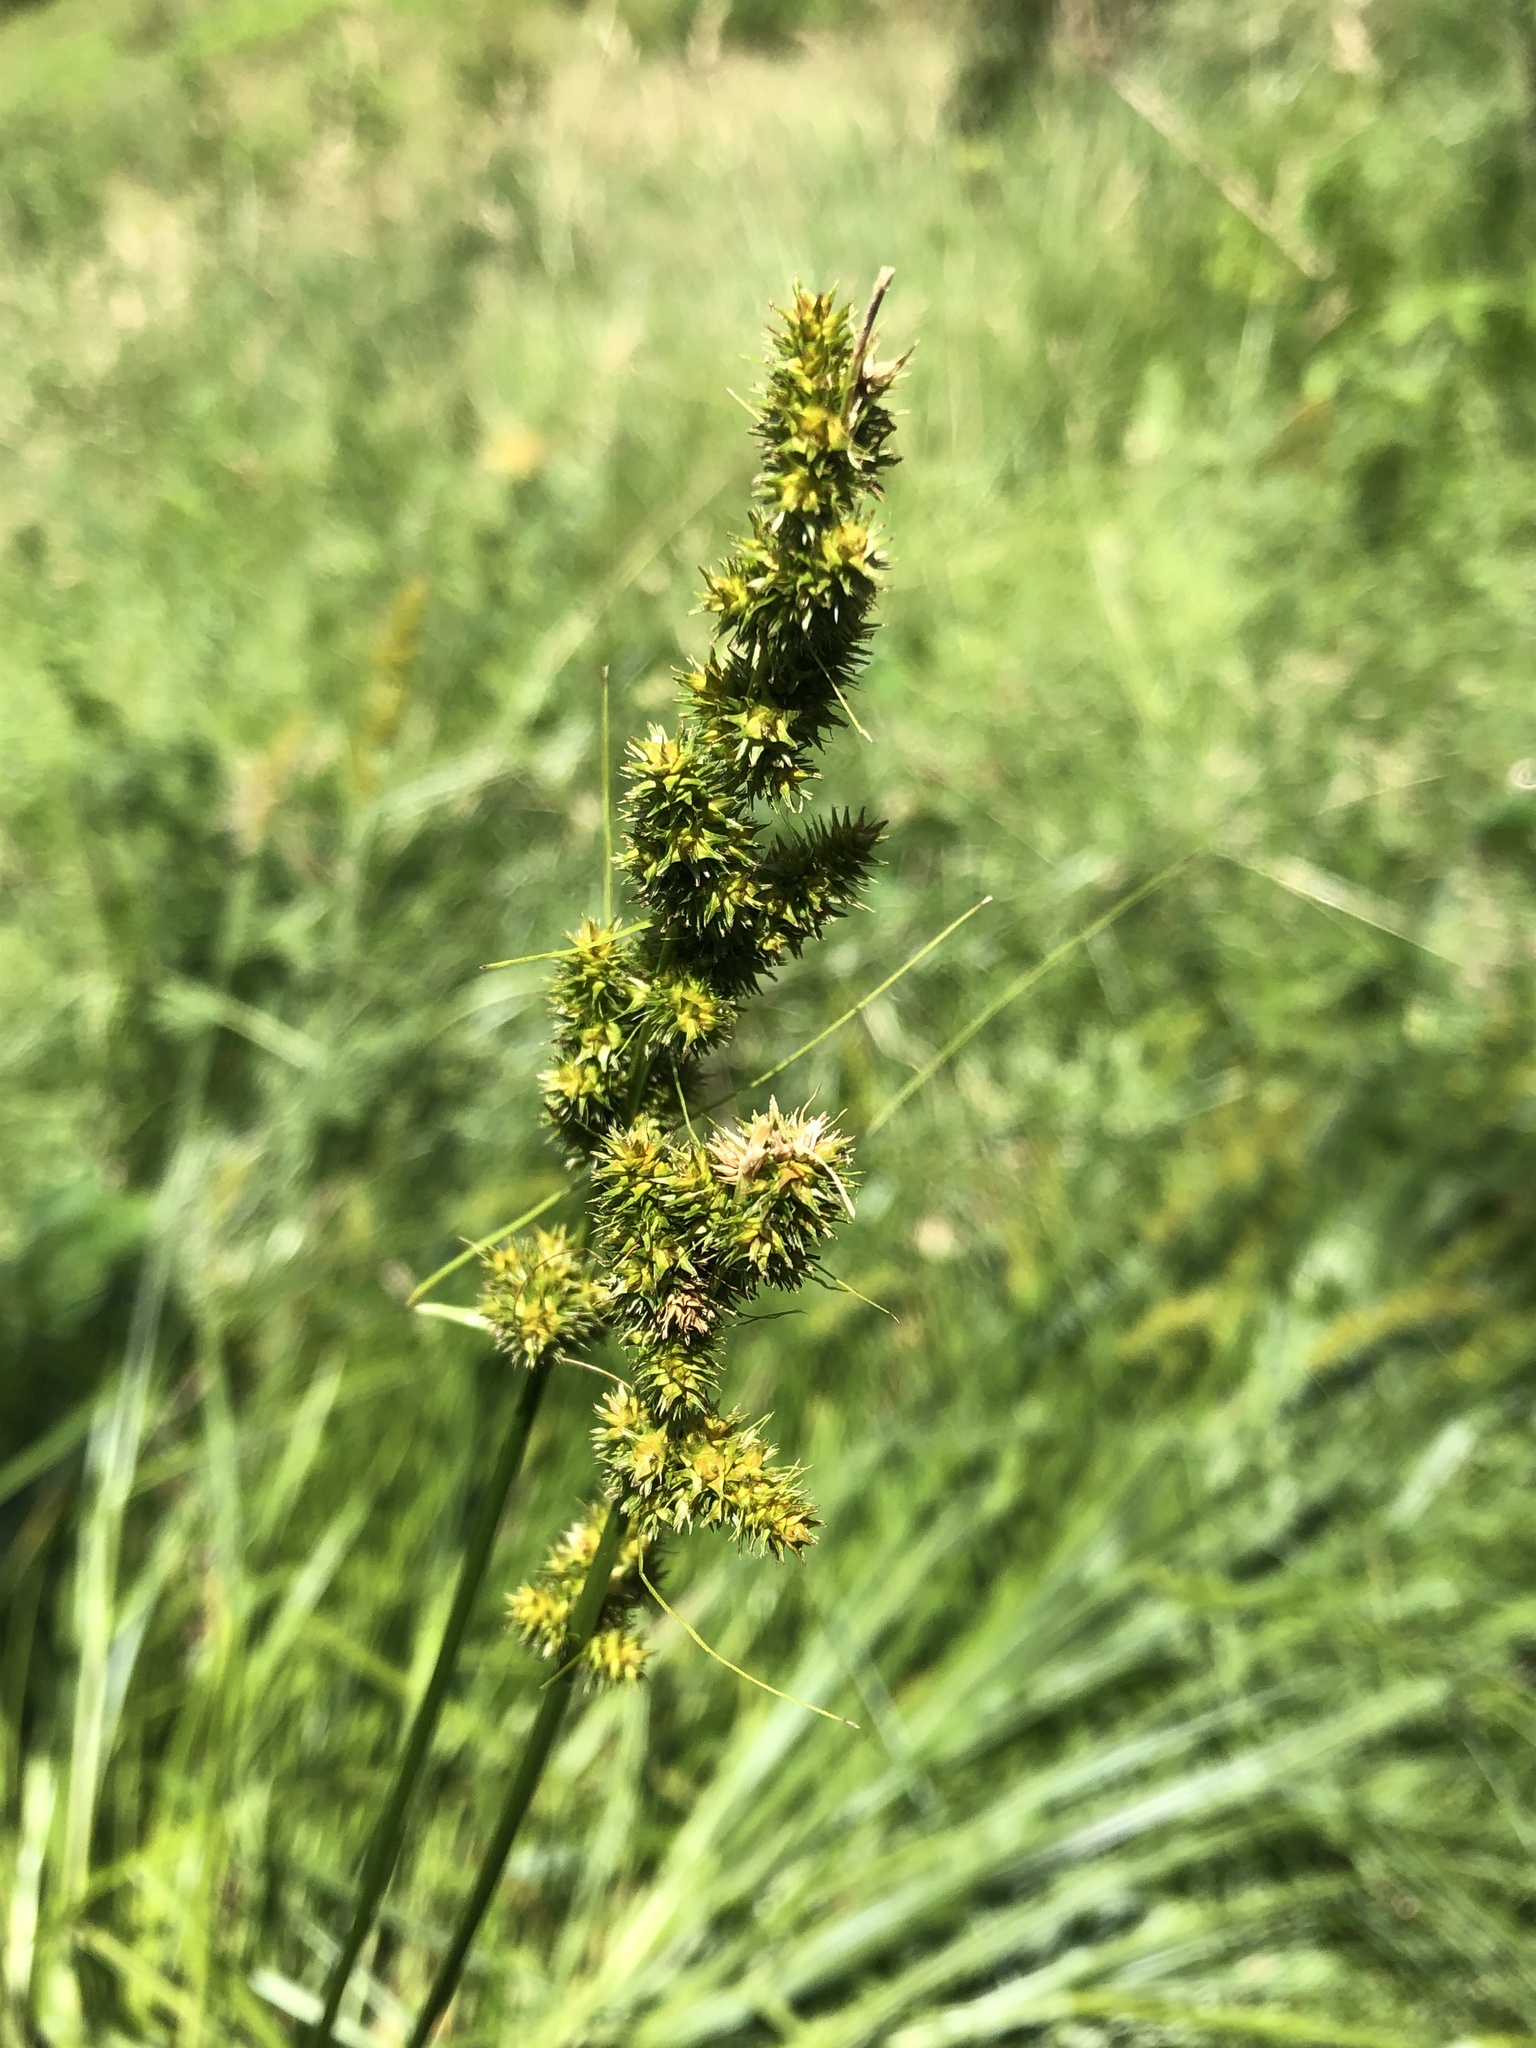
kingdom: Plantae
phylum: Tracheophyta
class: Liliopsida
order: Poales
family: Cyperaceae
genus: Carex
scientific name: Carex vulpinoidea
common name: American fox-sedge
